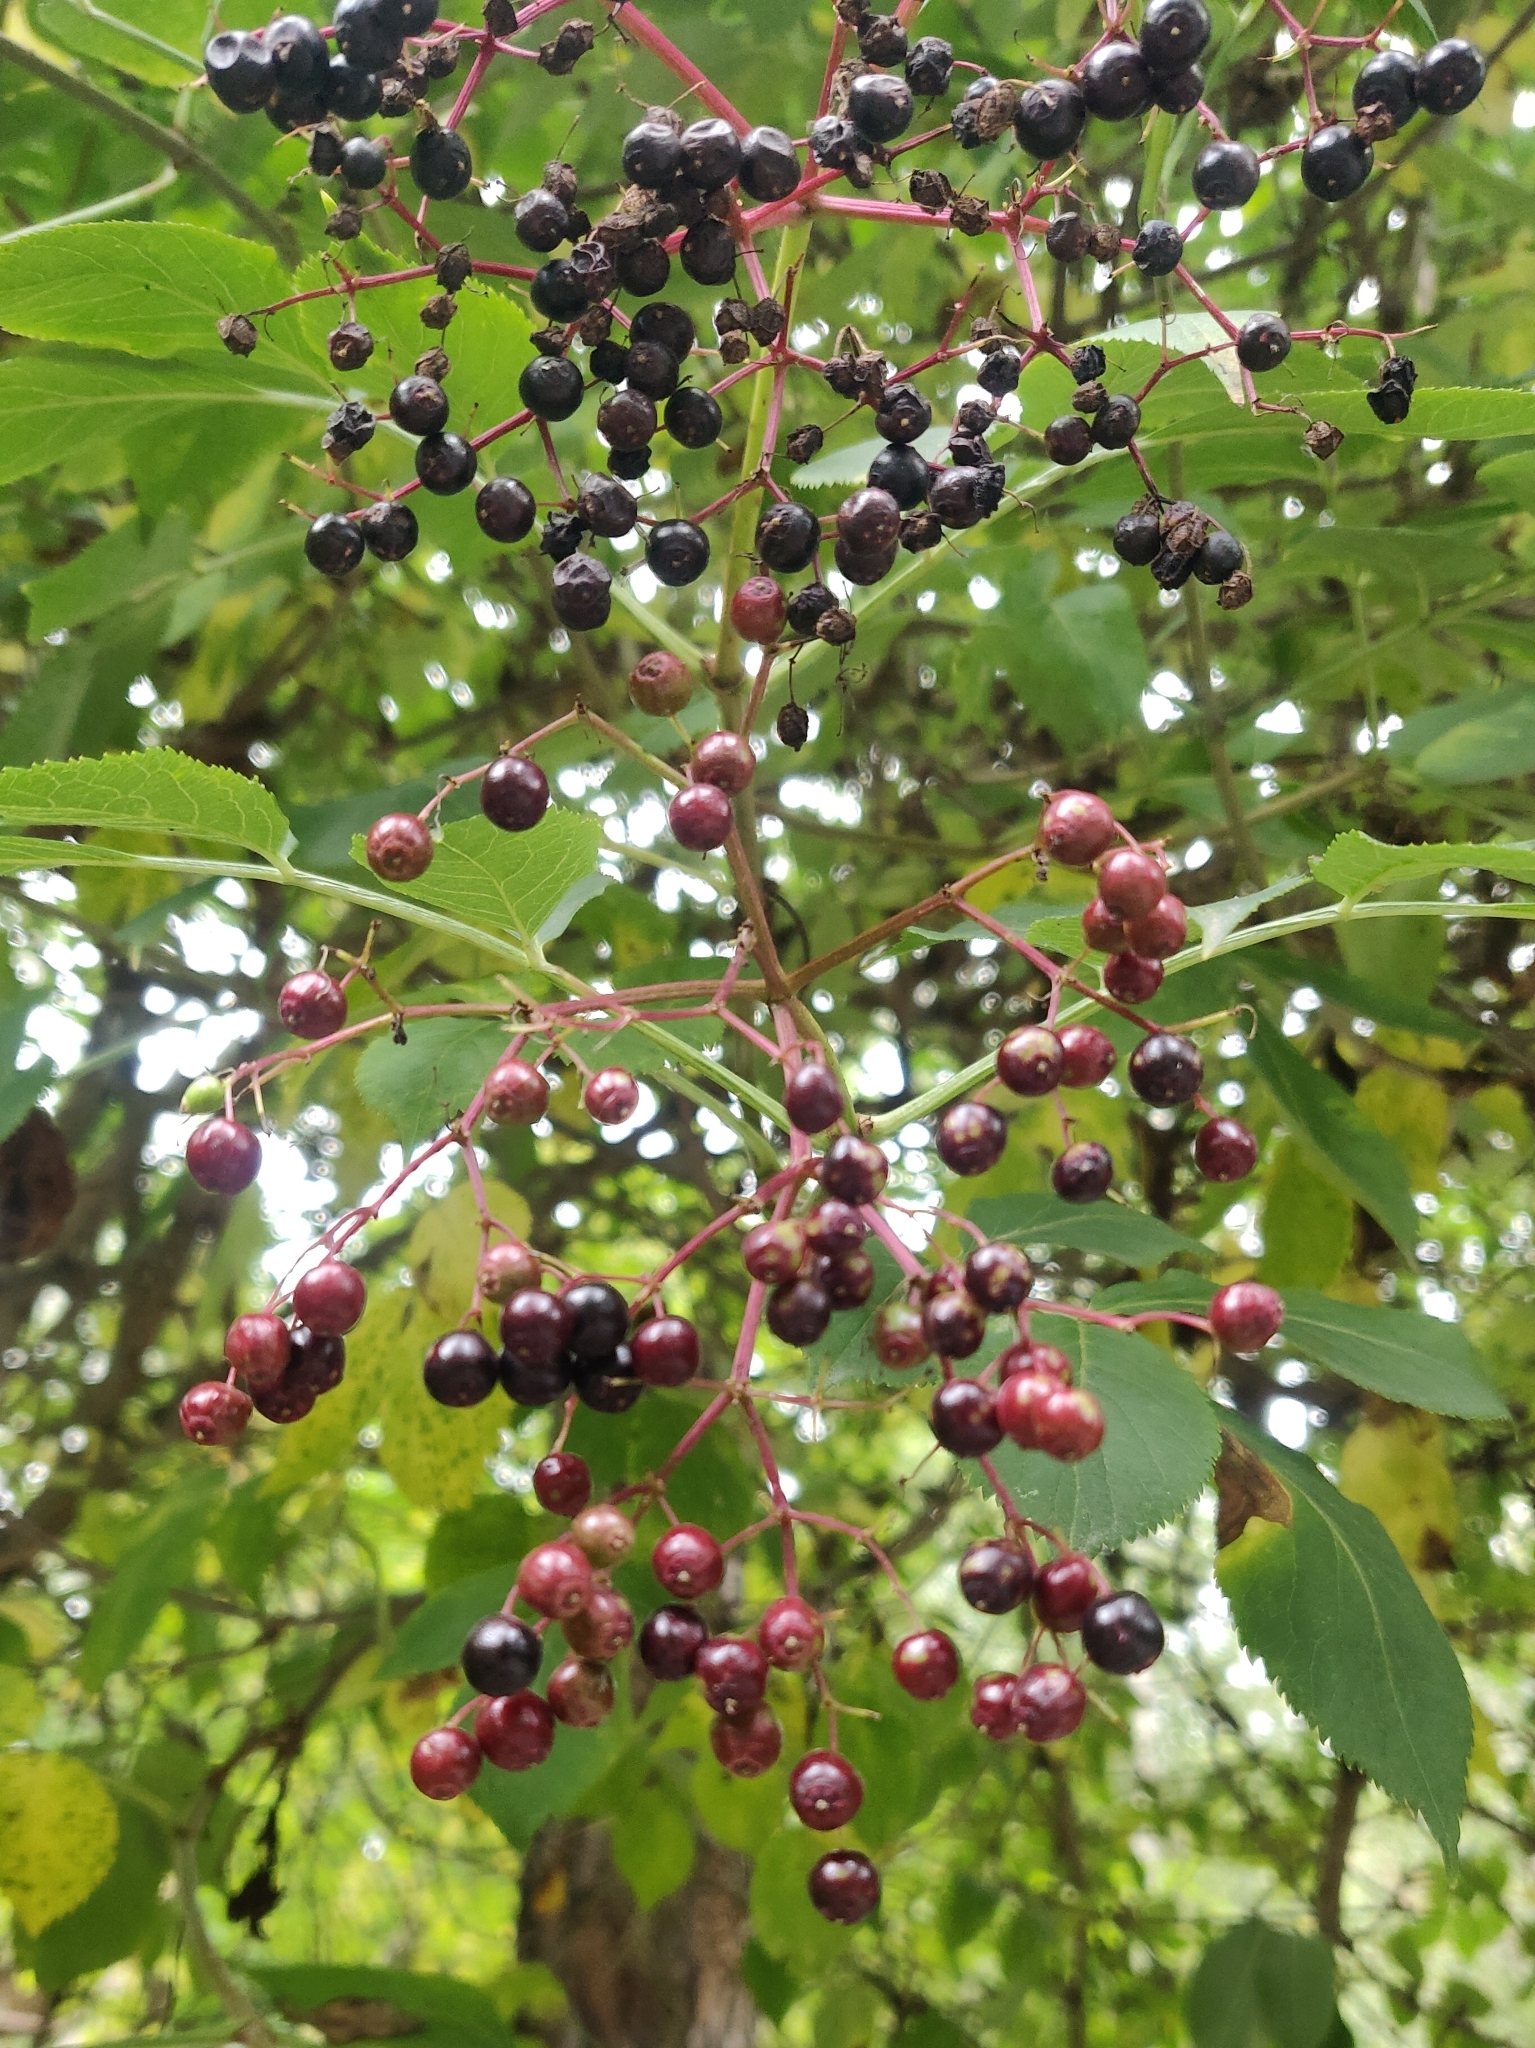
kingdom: Plantae
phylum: Tracheophyta
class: Magnoliopsida
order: Dipsacales
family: Viburnaceae
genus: Sambucus
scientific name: Sambucus nigra
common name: Elder
